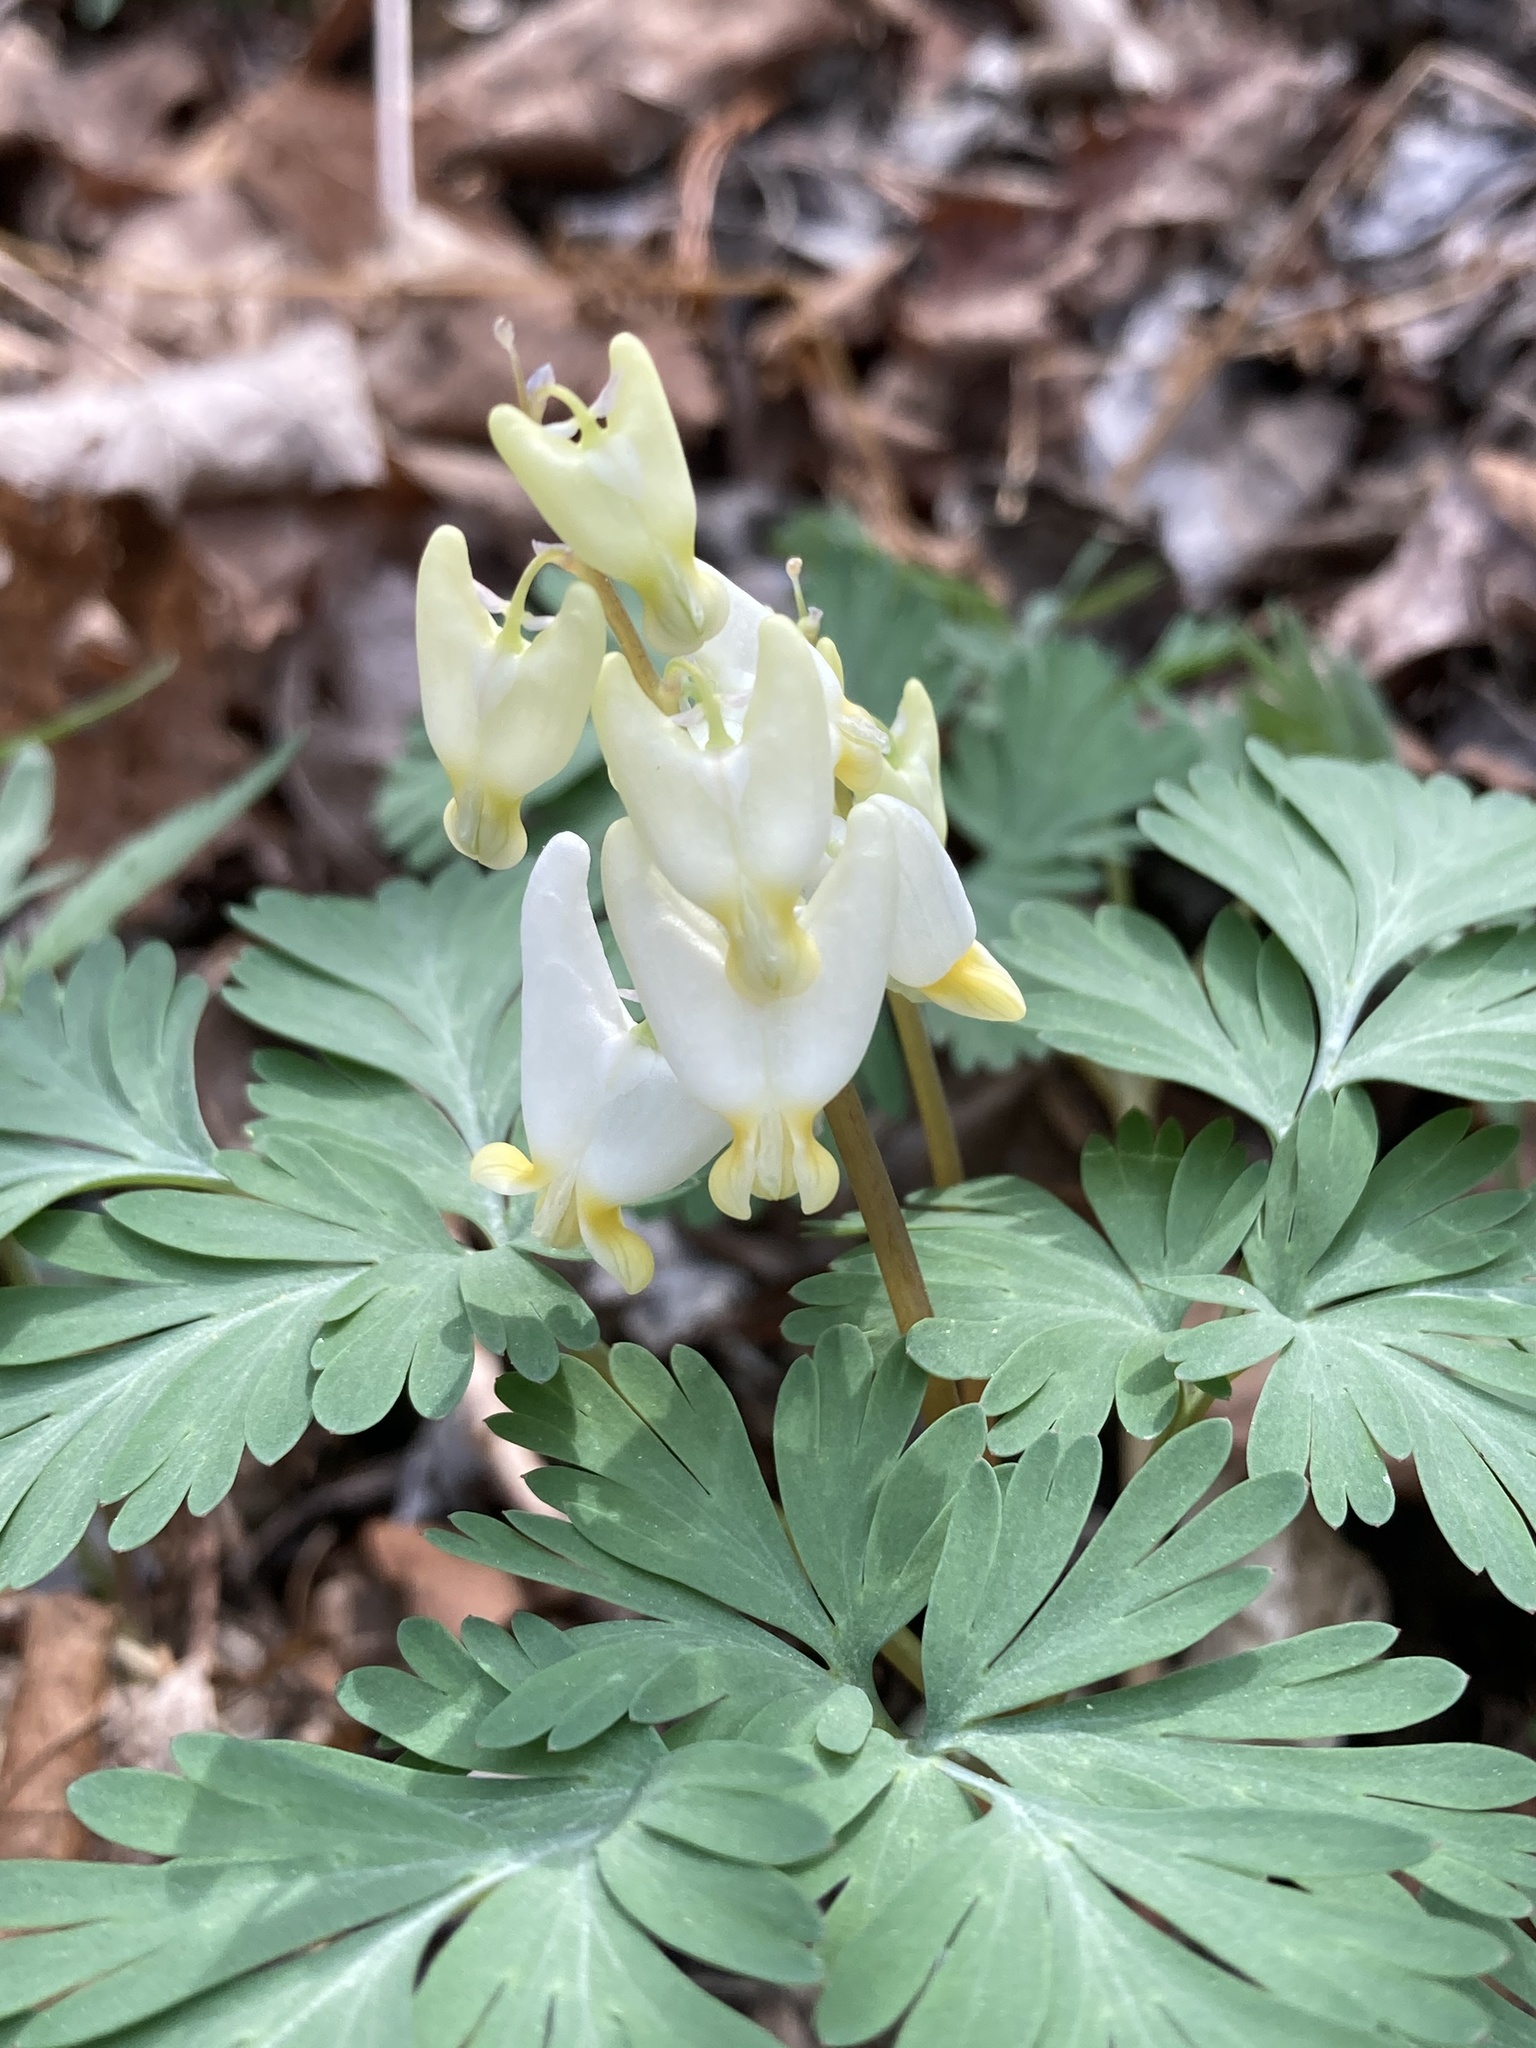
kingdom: Plantae
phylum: Tracheophyta
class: Magnoliopsida
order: Ranunculales
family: Papaveraceae
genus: Dicentra
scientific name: Dicentra cucullaria
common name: Dutchman's breeches
